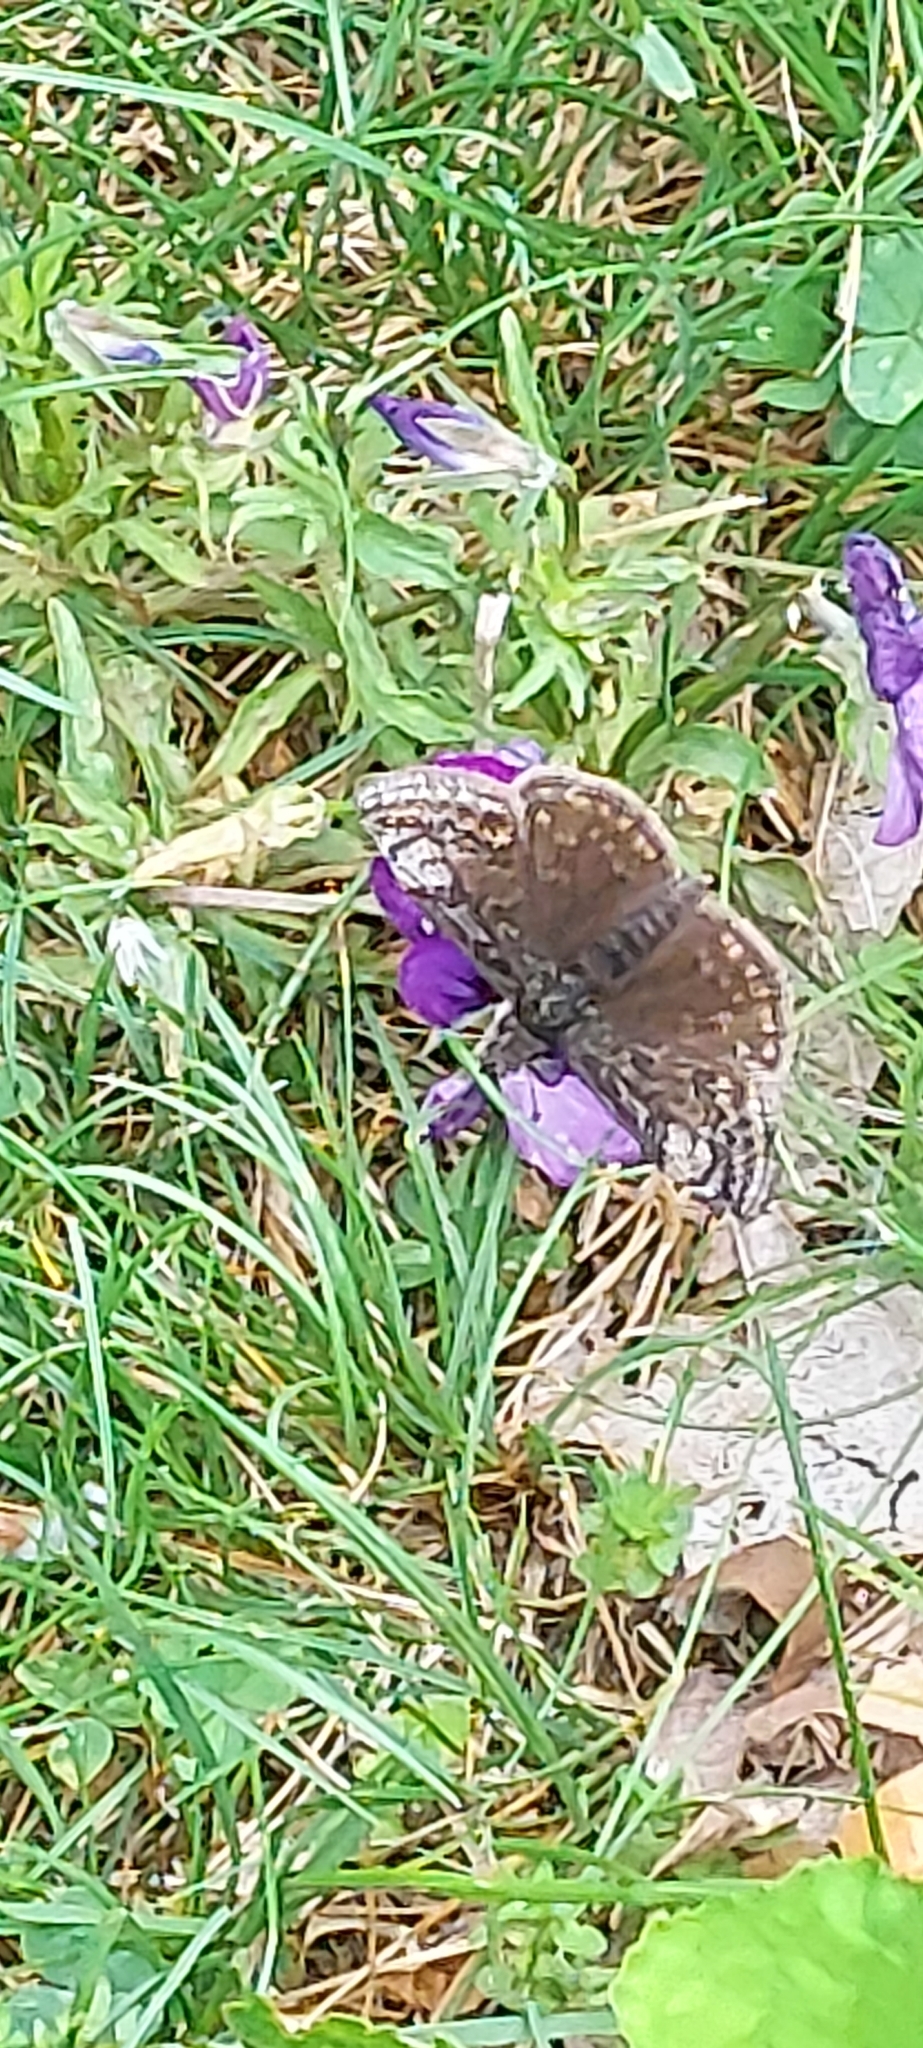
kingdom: Animalia
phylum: Arthropoda
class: Insecta
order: Lepidoptera
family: Hesperiidae
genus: Erynnis
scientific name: Erynnis icelus
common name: Dreamy duskywing
